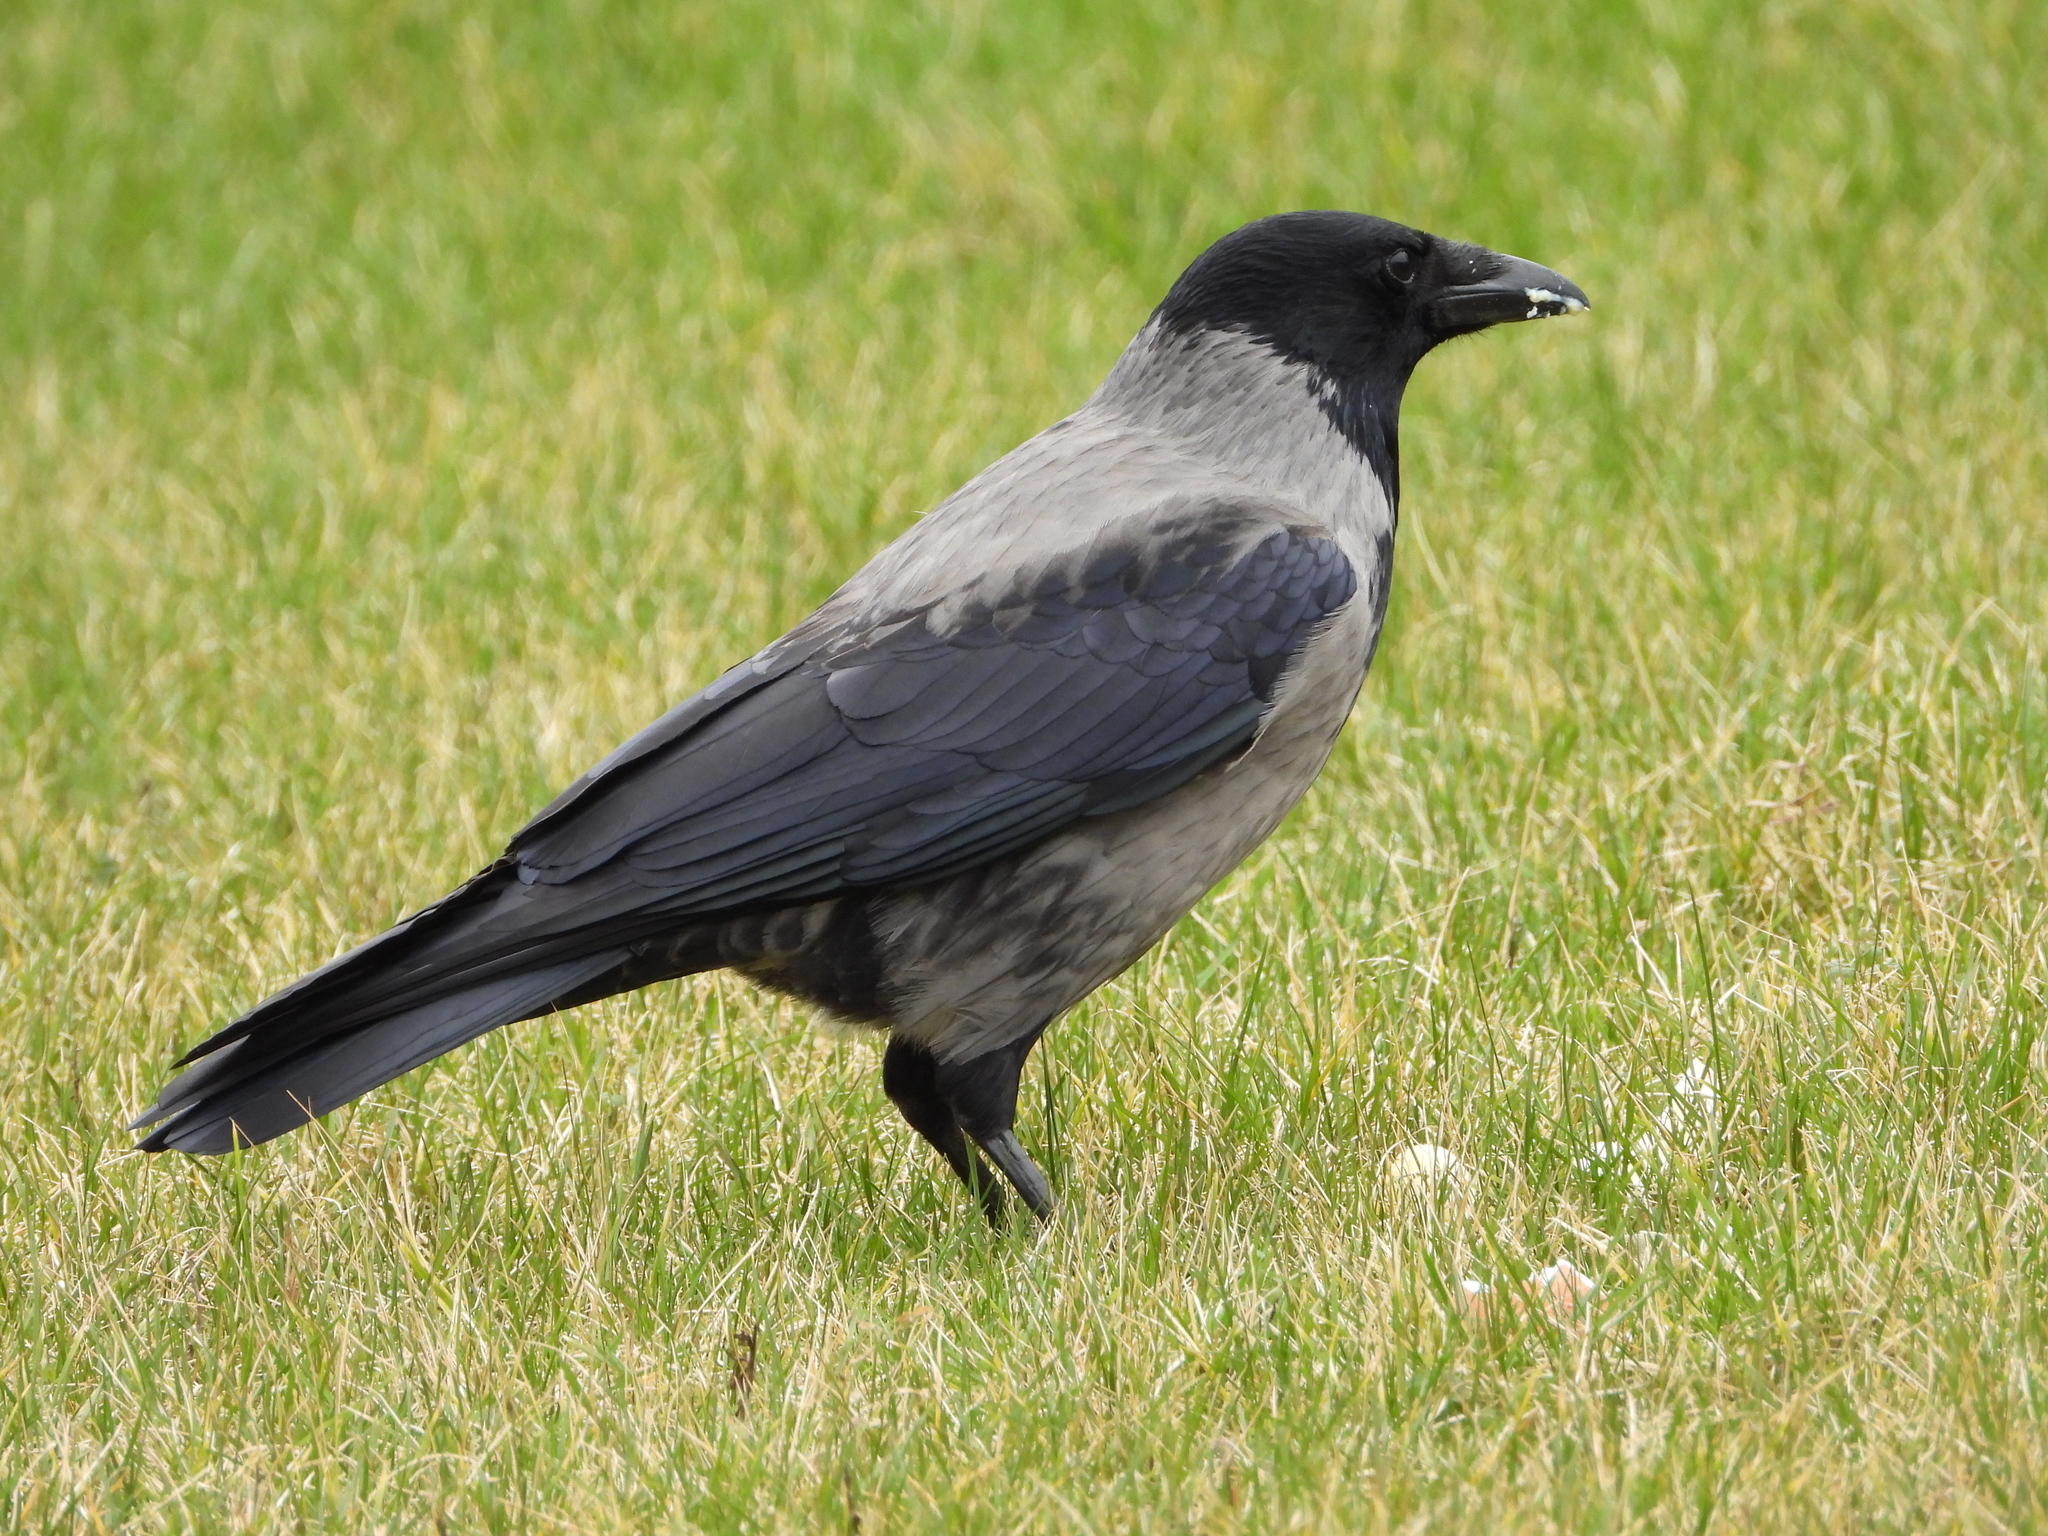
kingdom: Animalia
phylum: Chordata
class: Aves
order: Passeriformes
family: Corvidae
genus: Corvus
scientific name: Corvus
